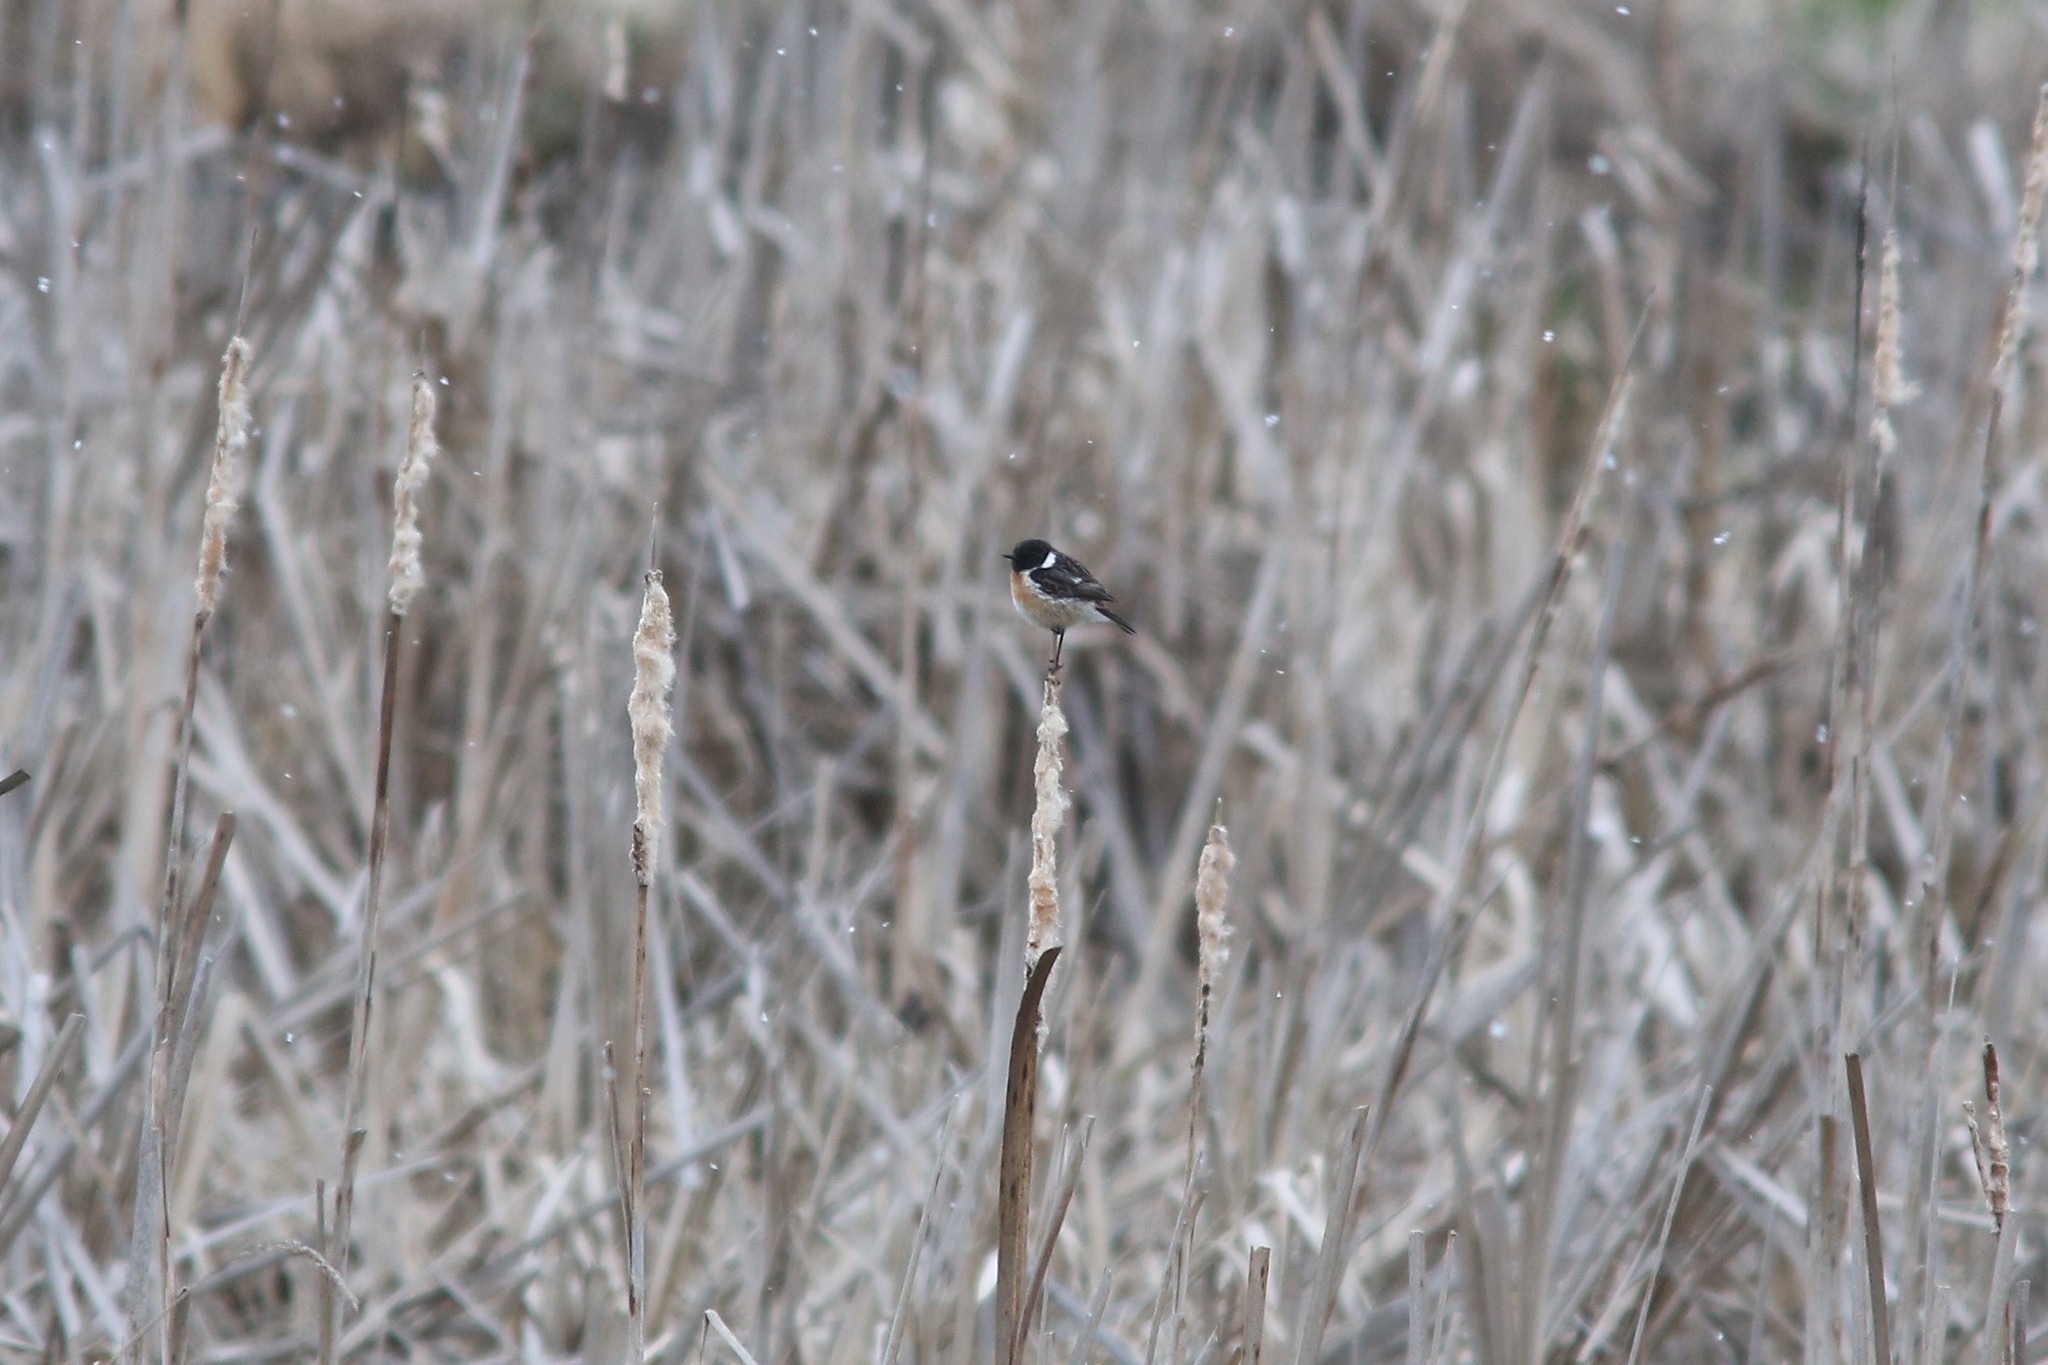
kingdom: Animalia
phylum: Chordata
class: Aves
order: Passeriformes
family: Muscicapidae
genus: Saxicola
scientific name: Saxicola rubicola
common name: European stonechat
